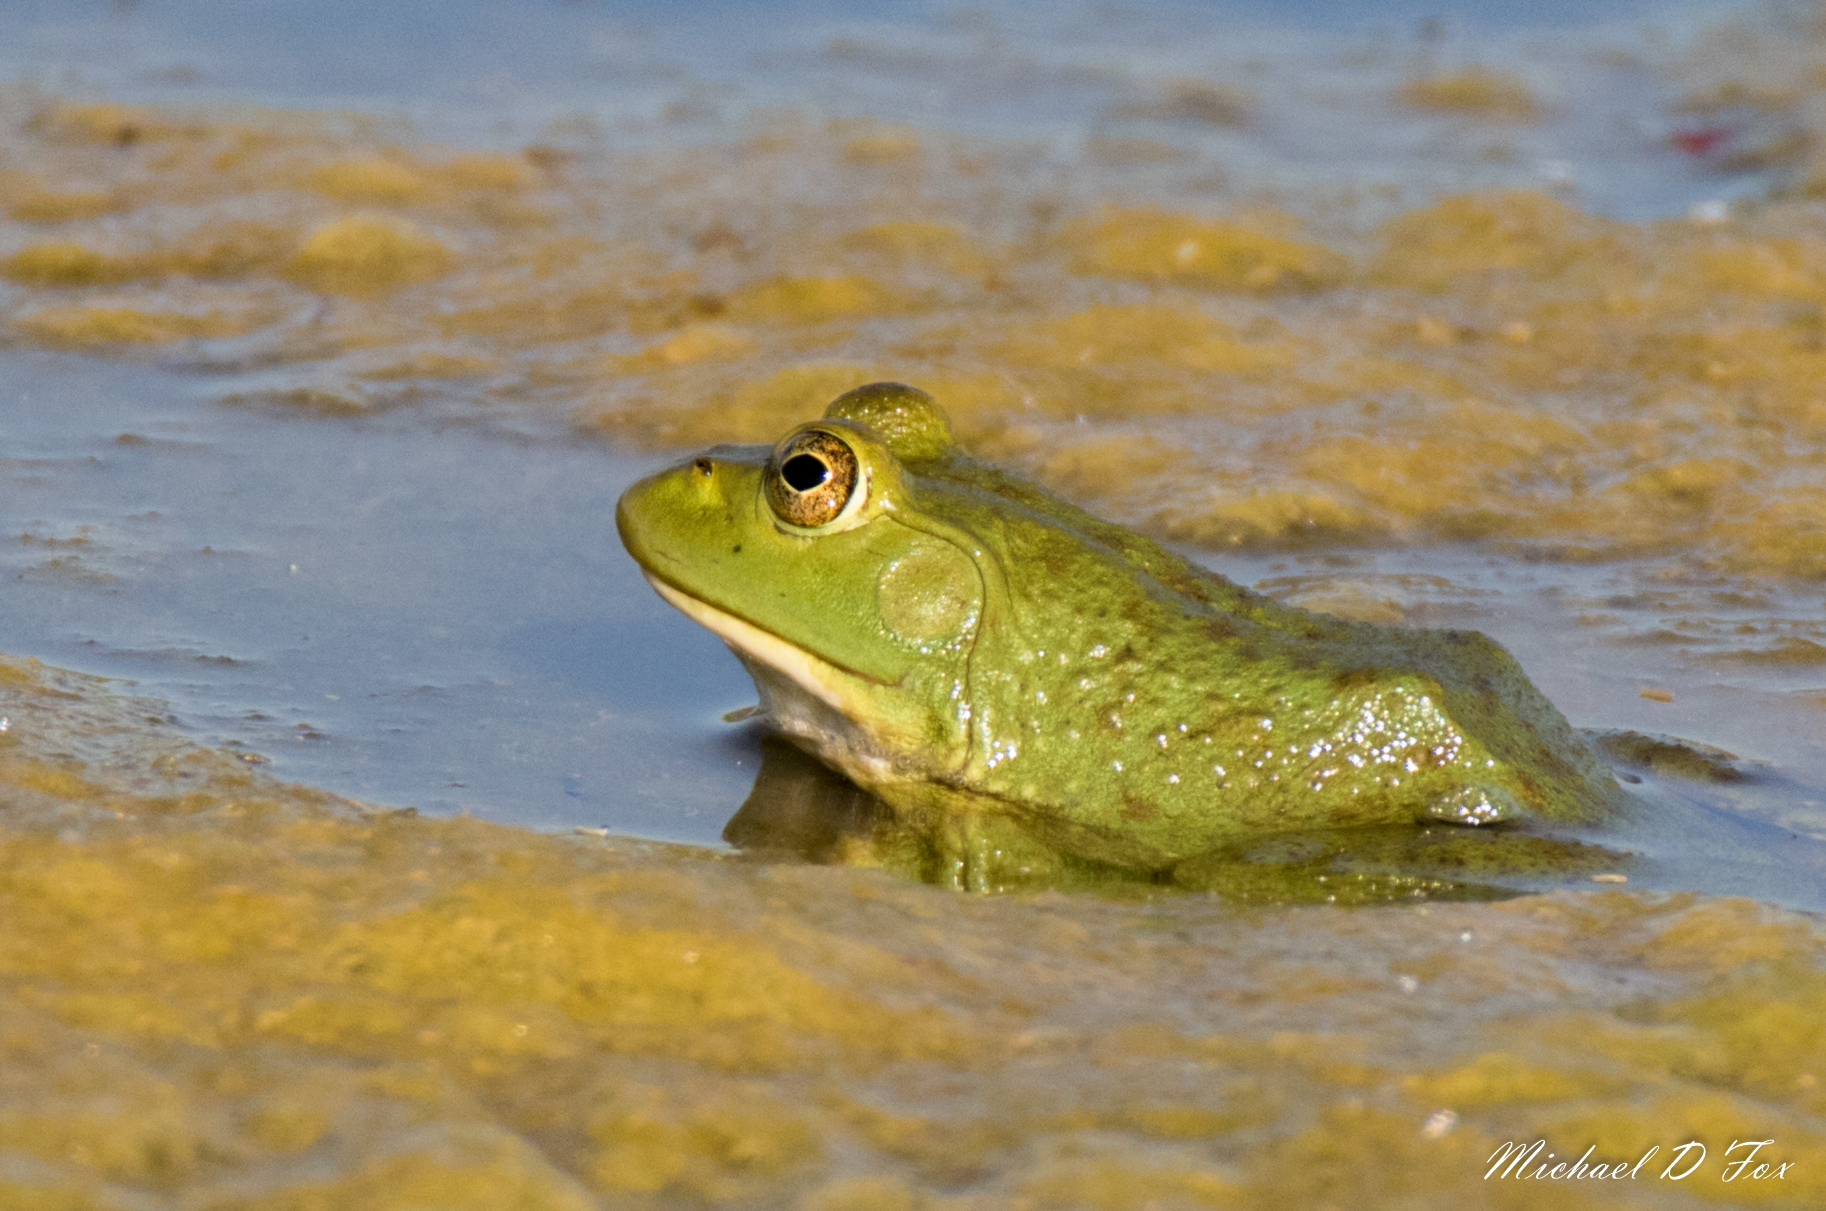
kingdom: Animalia
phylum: Chordata
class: Amphibia
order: Anura
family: Ranidae
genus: Lithobates
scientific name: Lithobates catesbeianus
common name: American bullfrog
